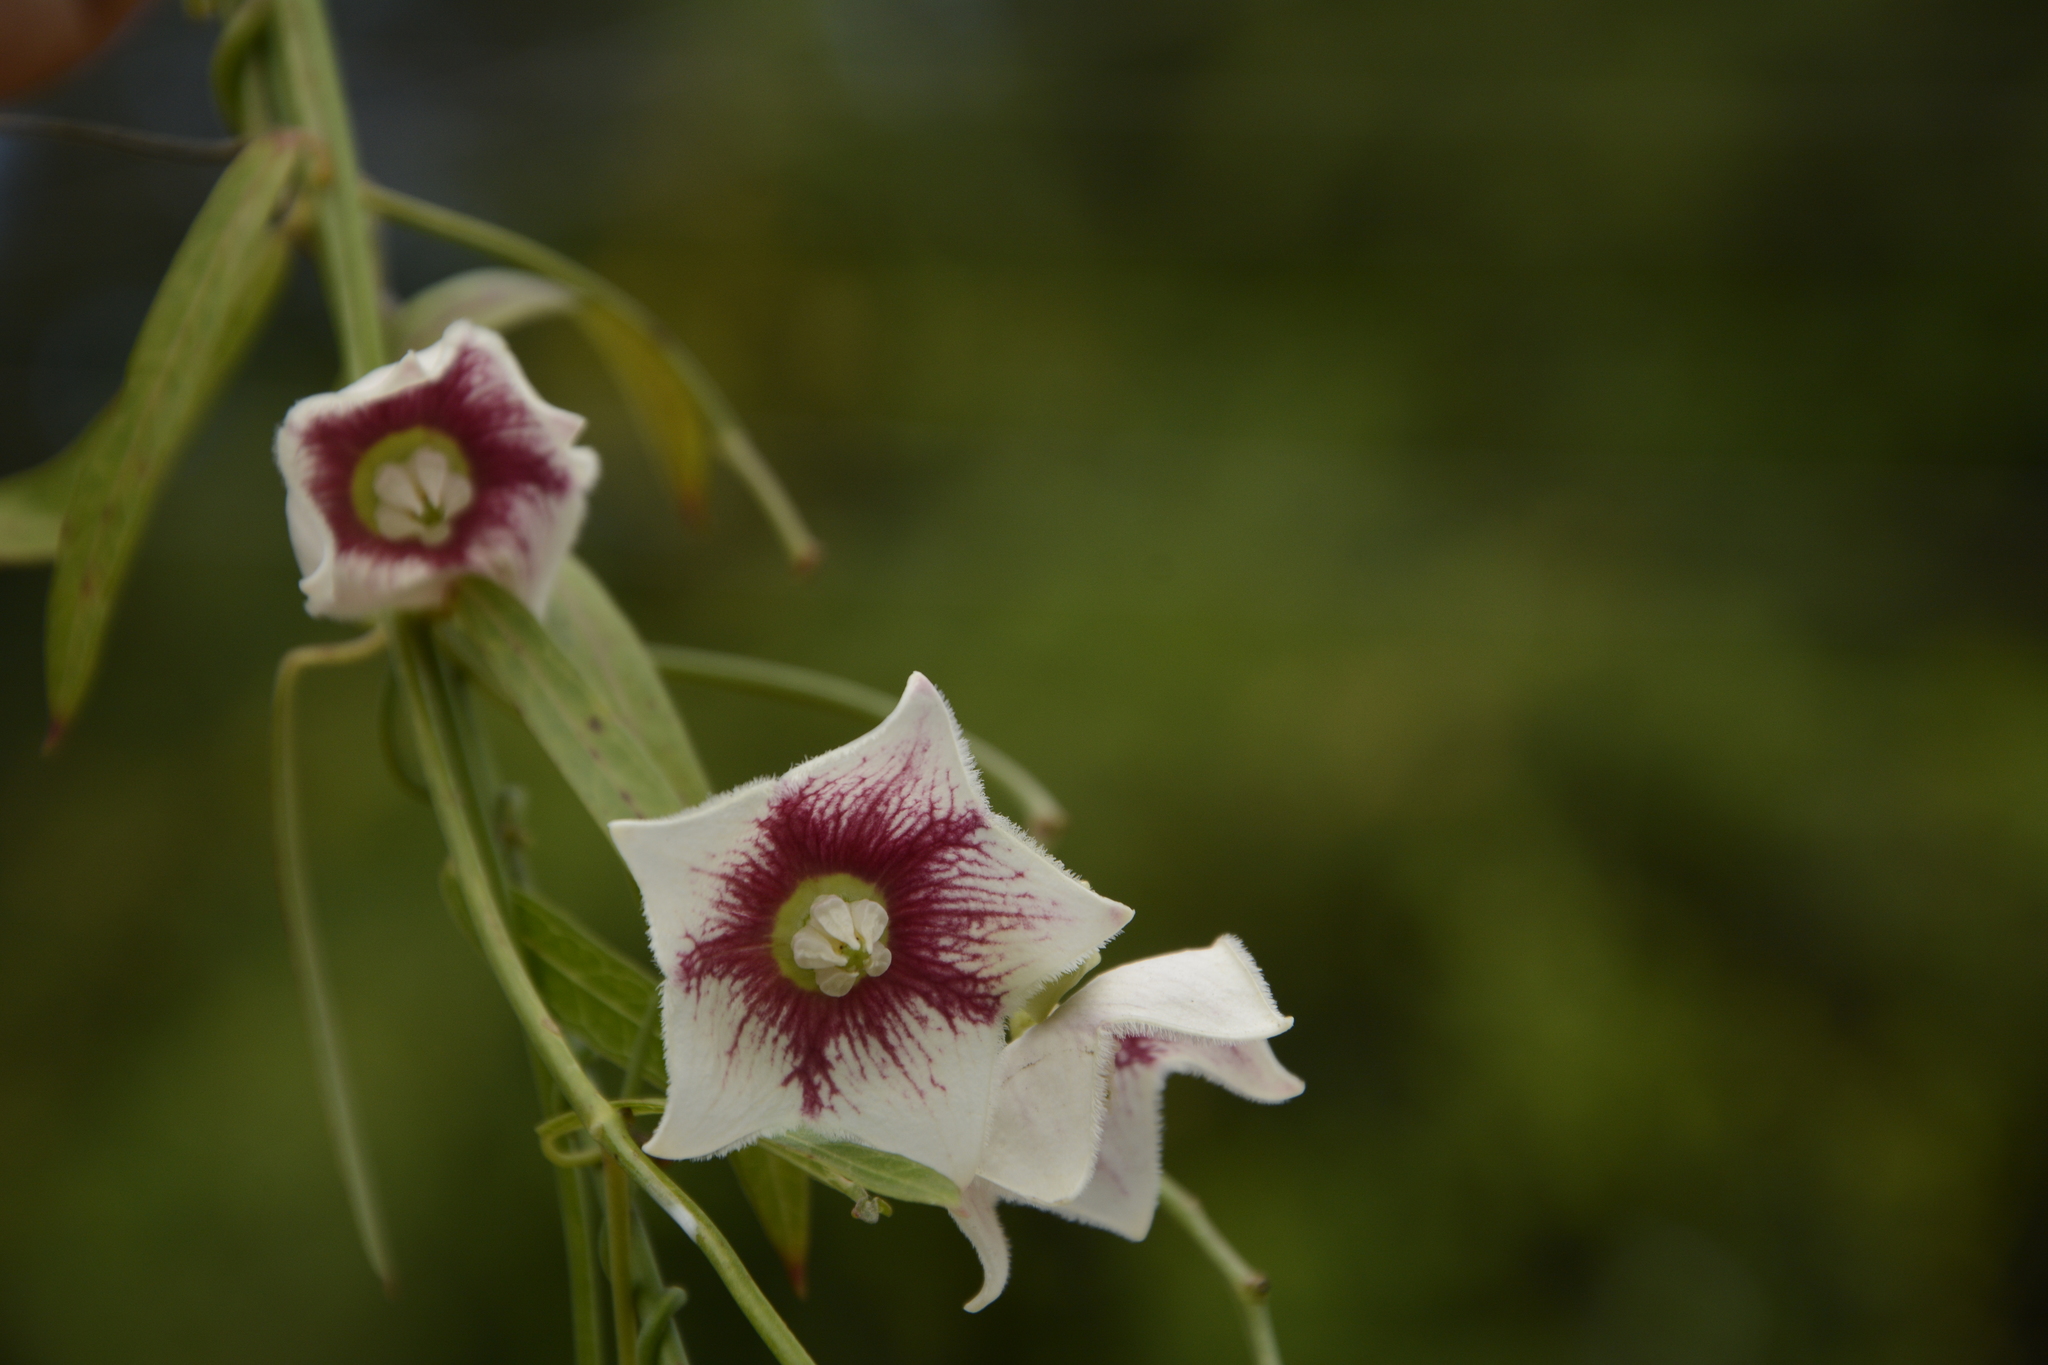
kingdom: Plantae
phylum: Tracheophyta
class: Magnoliopsida
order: Gentianales
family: Apocynaceae
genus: Oxystelma
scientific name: Oxystelma wallichii
